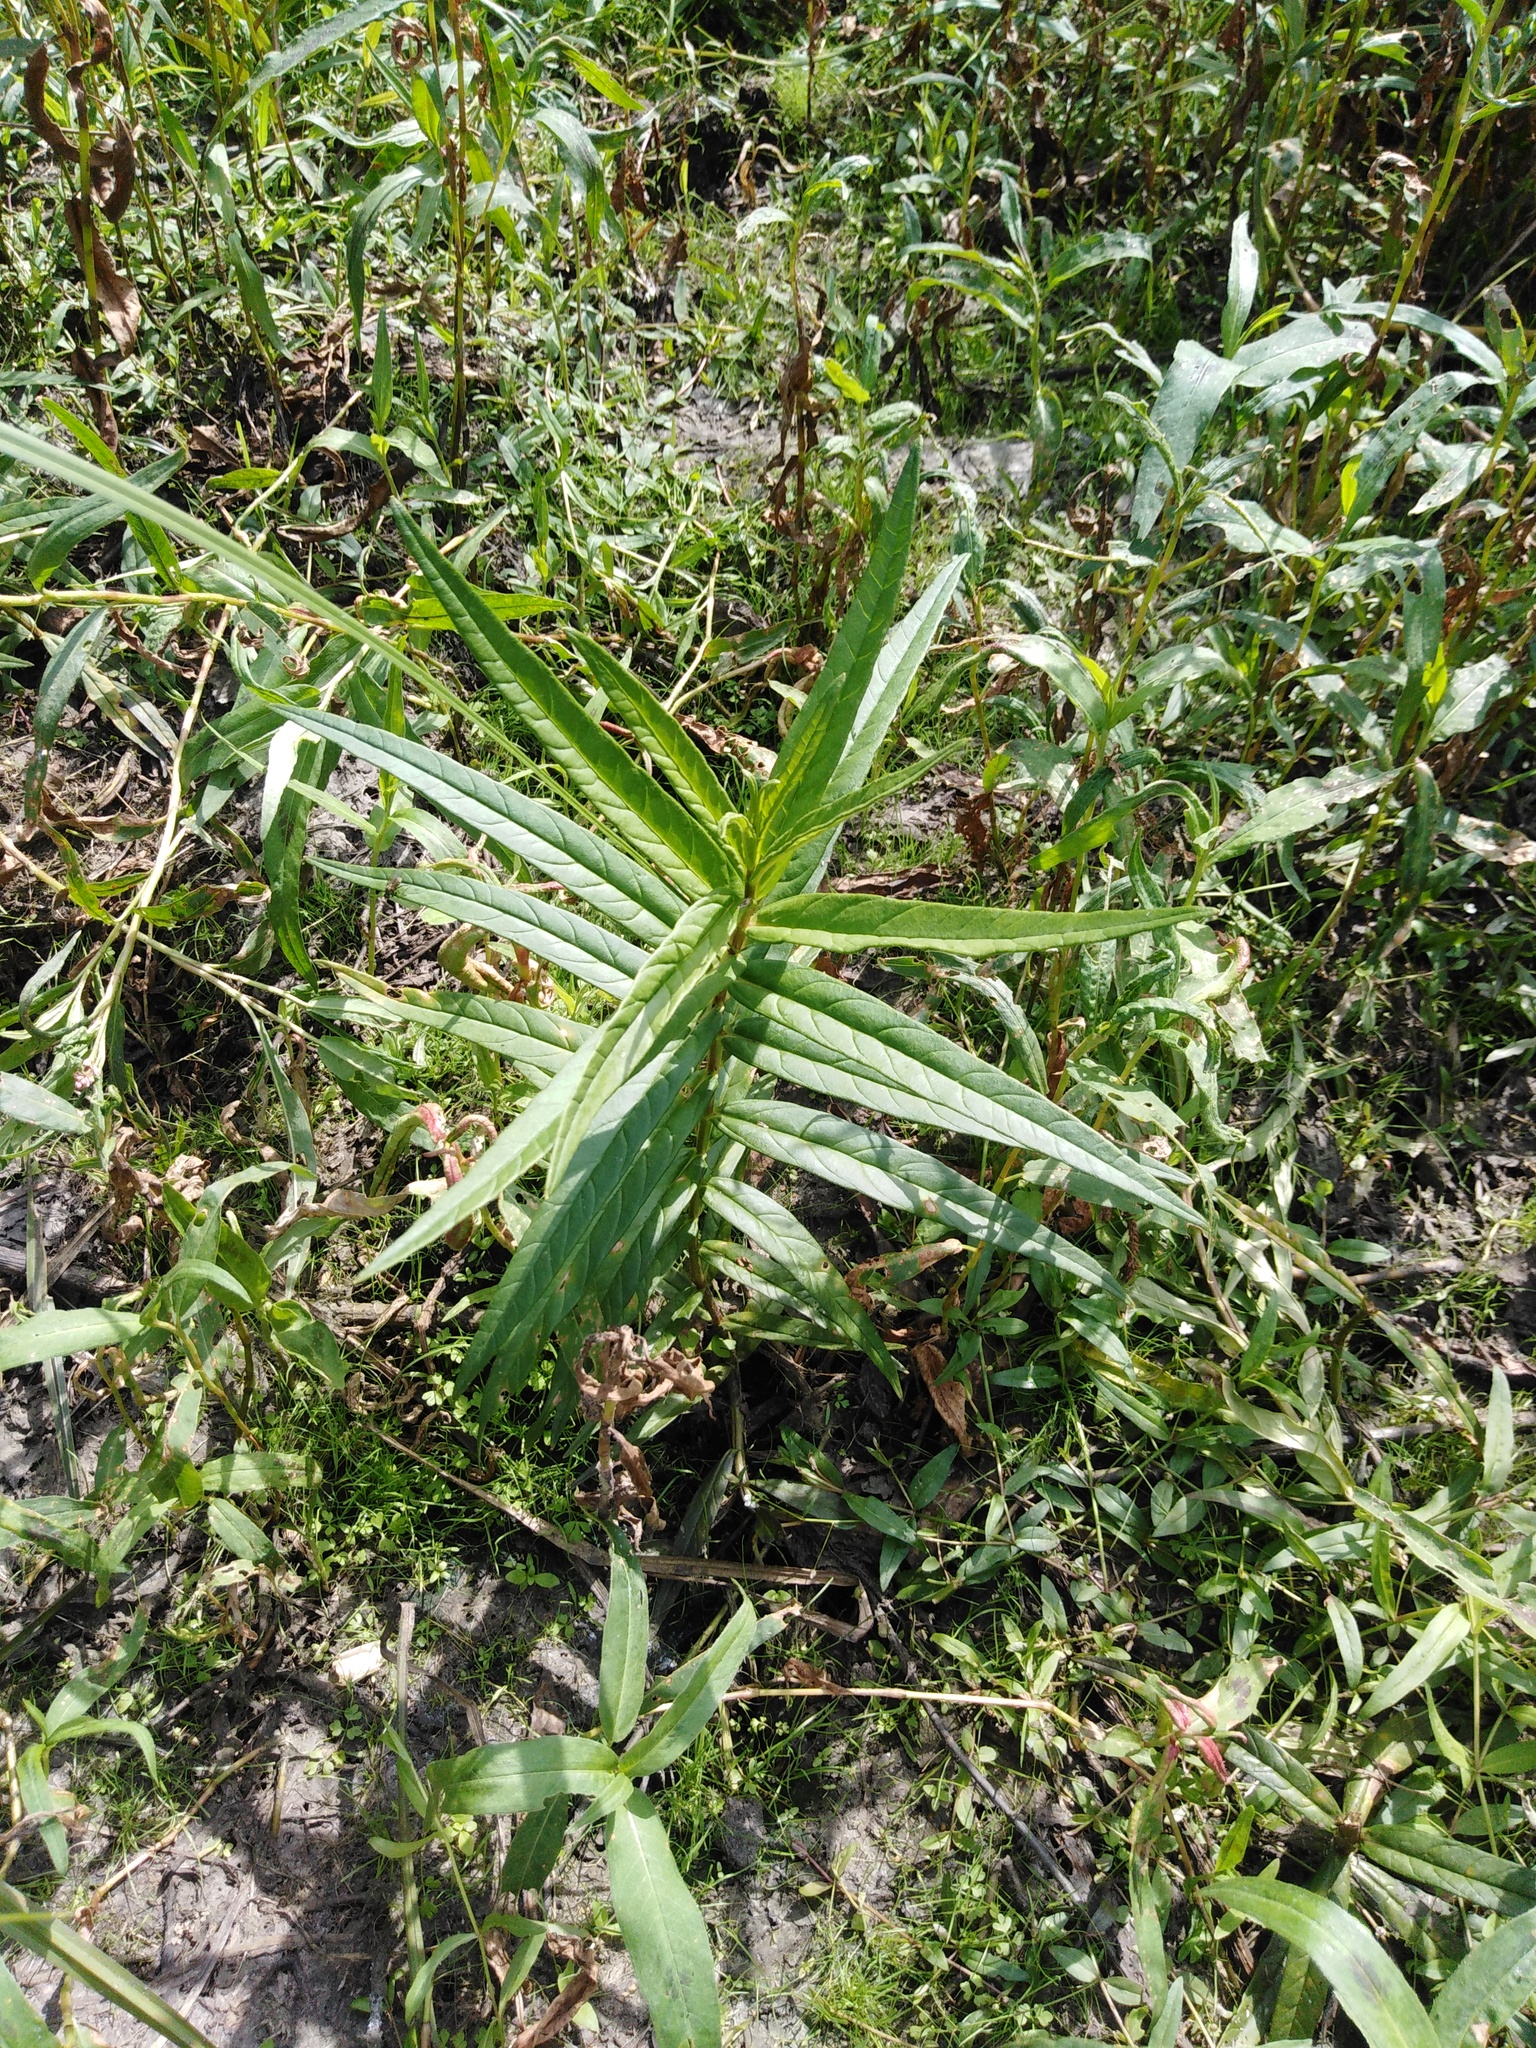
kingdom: Plantae
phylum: Tracheophyta
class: Magnoliopsida
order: Ericales
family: Primulaceae
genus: Lysimachia
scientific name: Lysimachia thyrsiflora
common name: Tufted loosestrife
